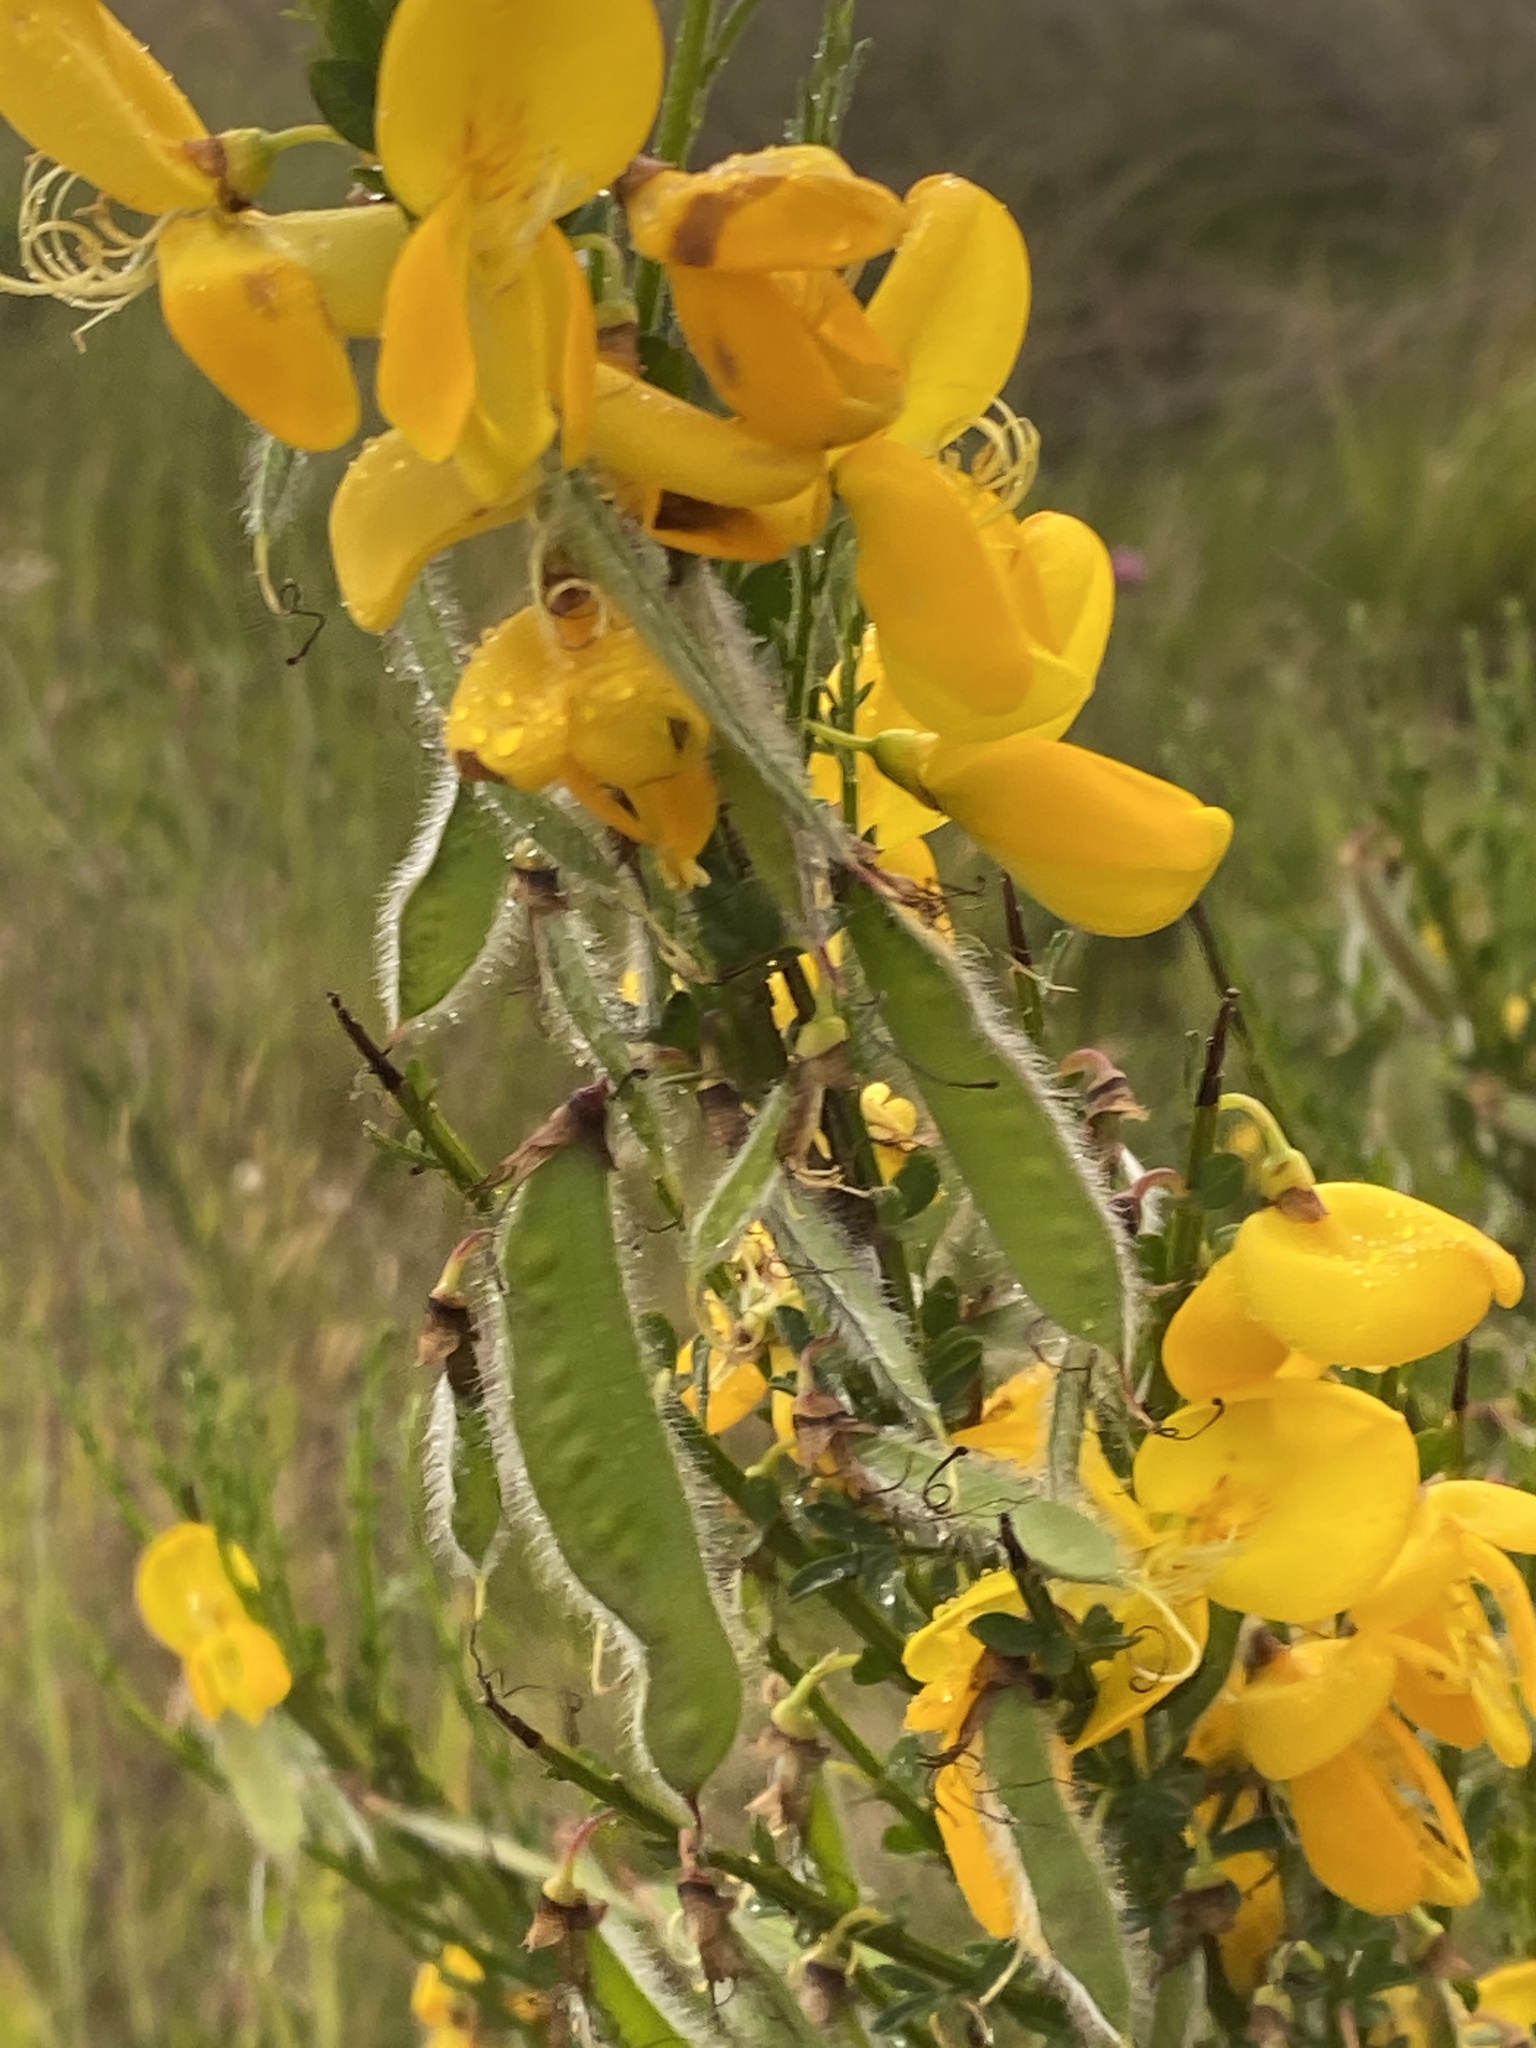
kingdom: Plantae
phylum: Tracheophyta
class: Magnoliopsida
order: Fabales
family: Fabaceae
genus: Cytisus
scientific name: Cytisus scoparius
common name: Scotch broom
